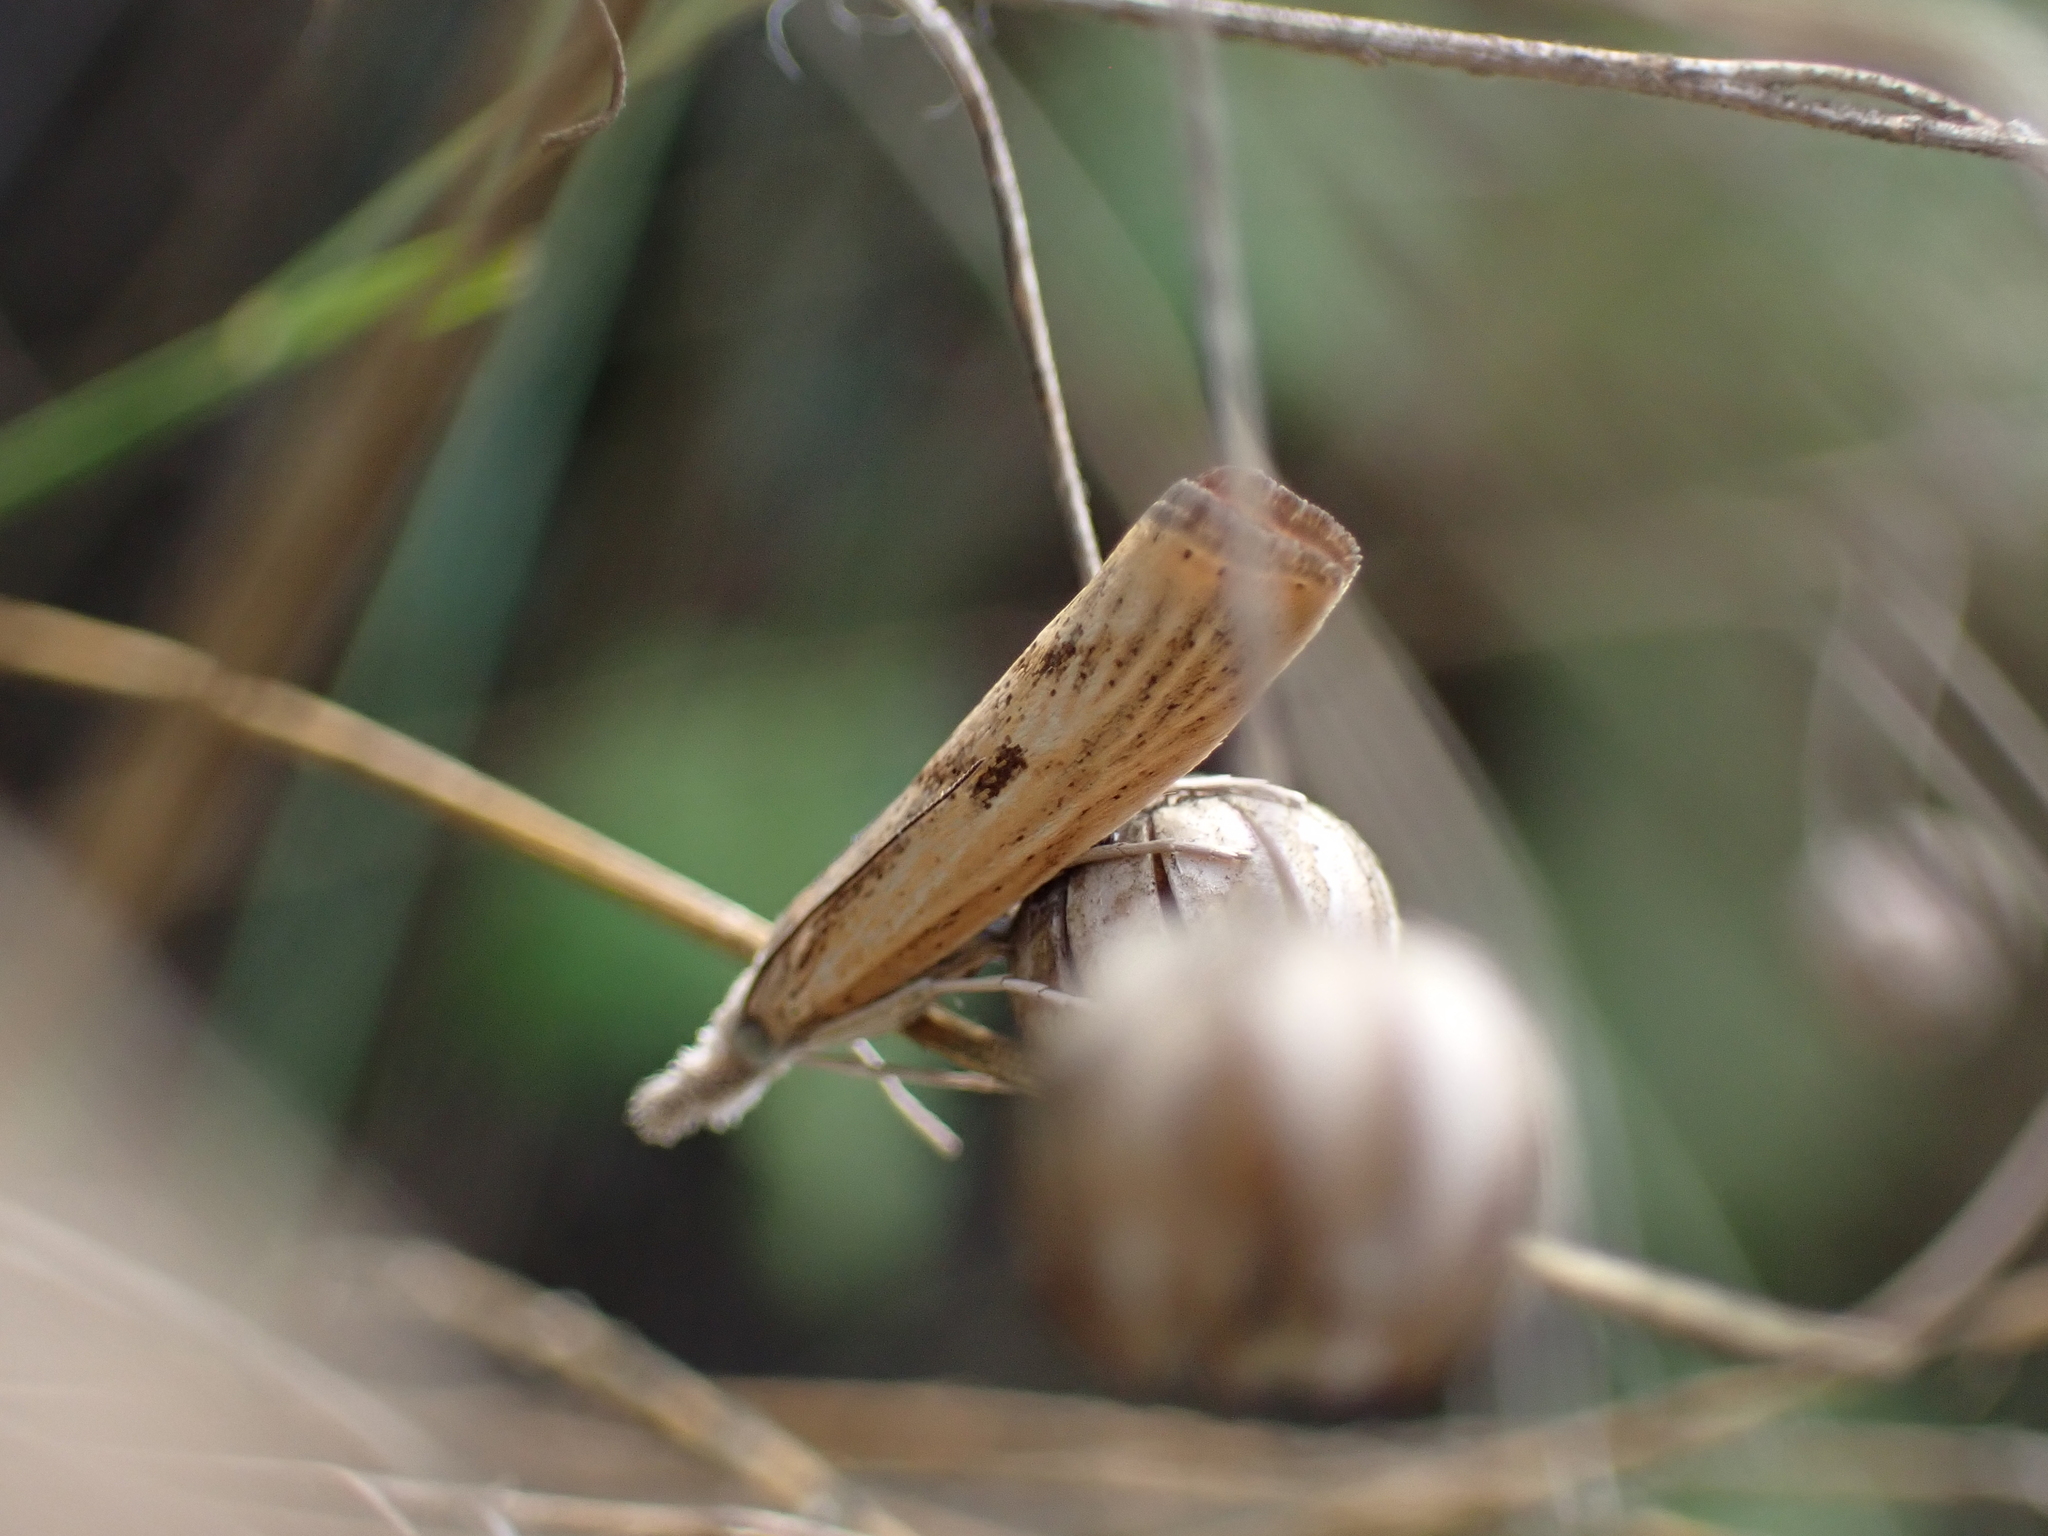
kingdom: Animalia
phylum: Arthropoda
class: Insecta
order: Lepidoptera
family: Crambidae
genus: Agriphila
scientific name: Agriphila inquinatella
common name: Barred grass-veneer
